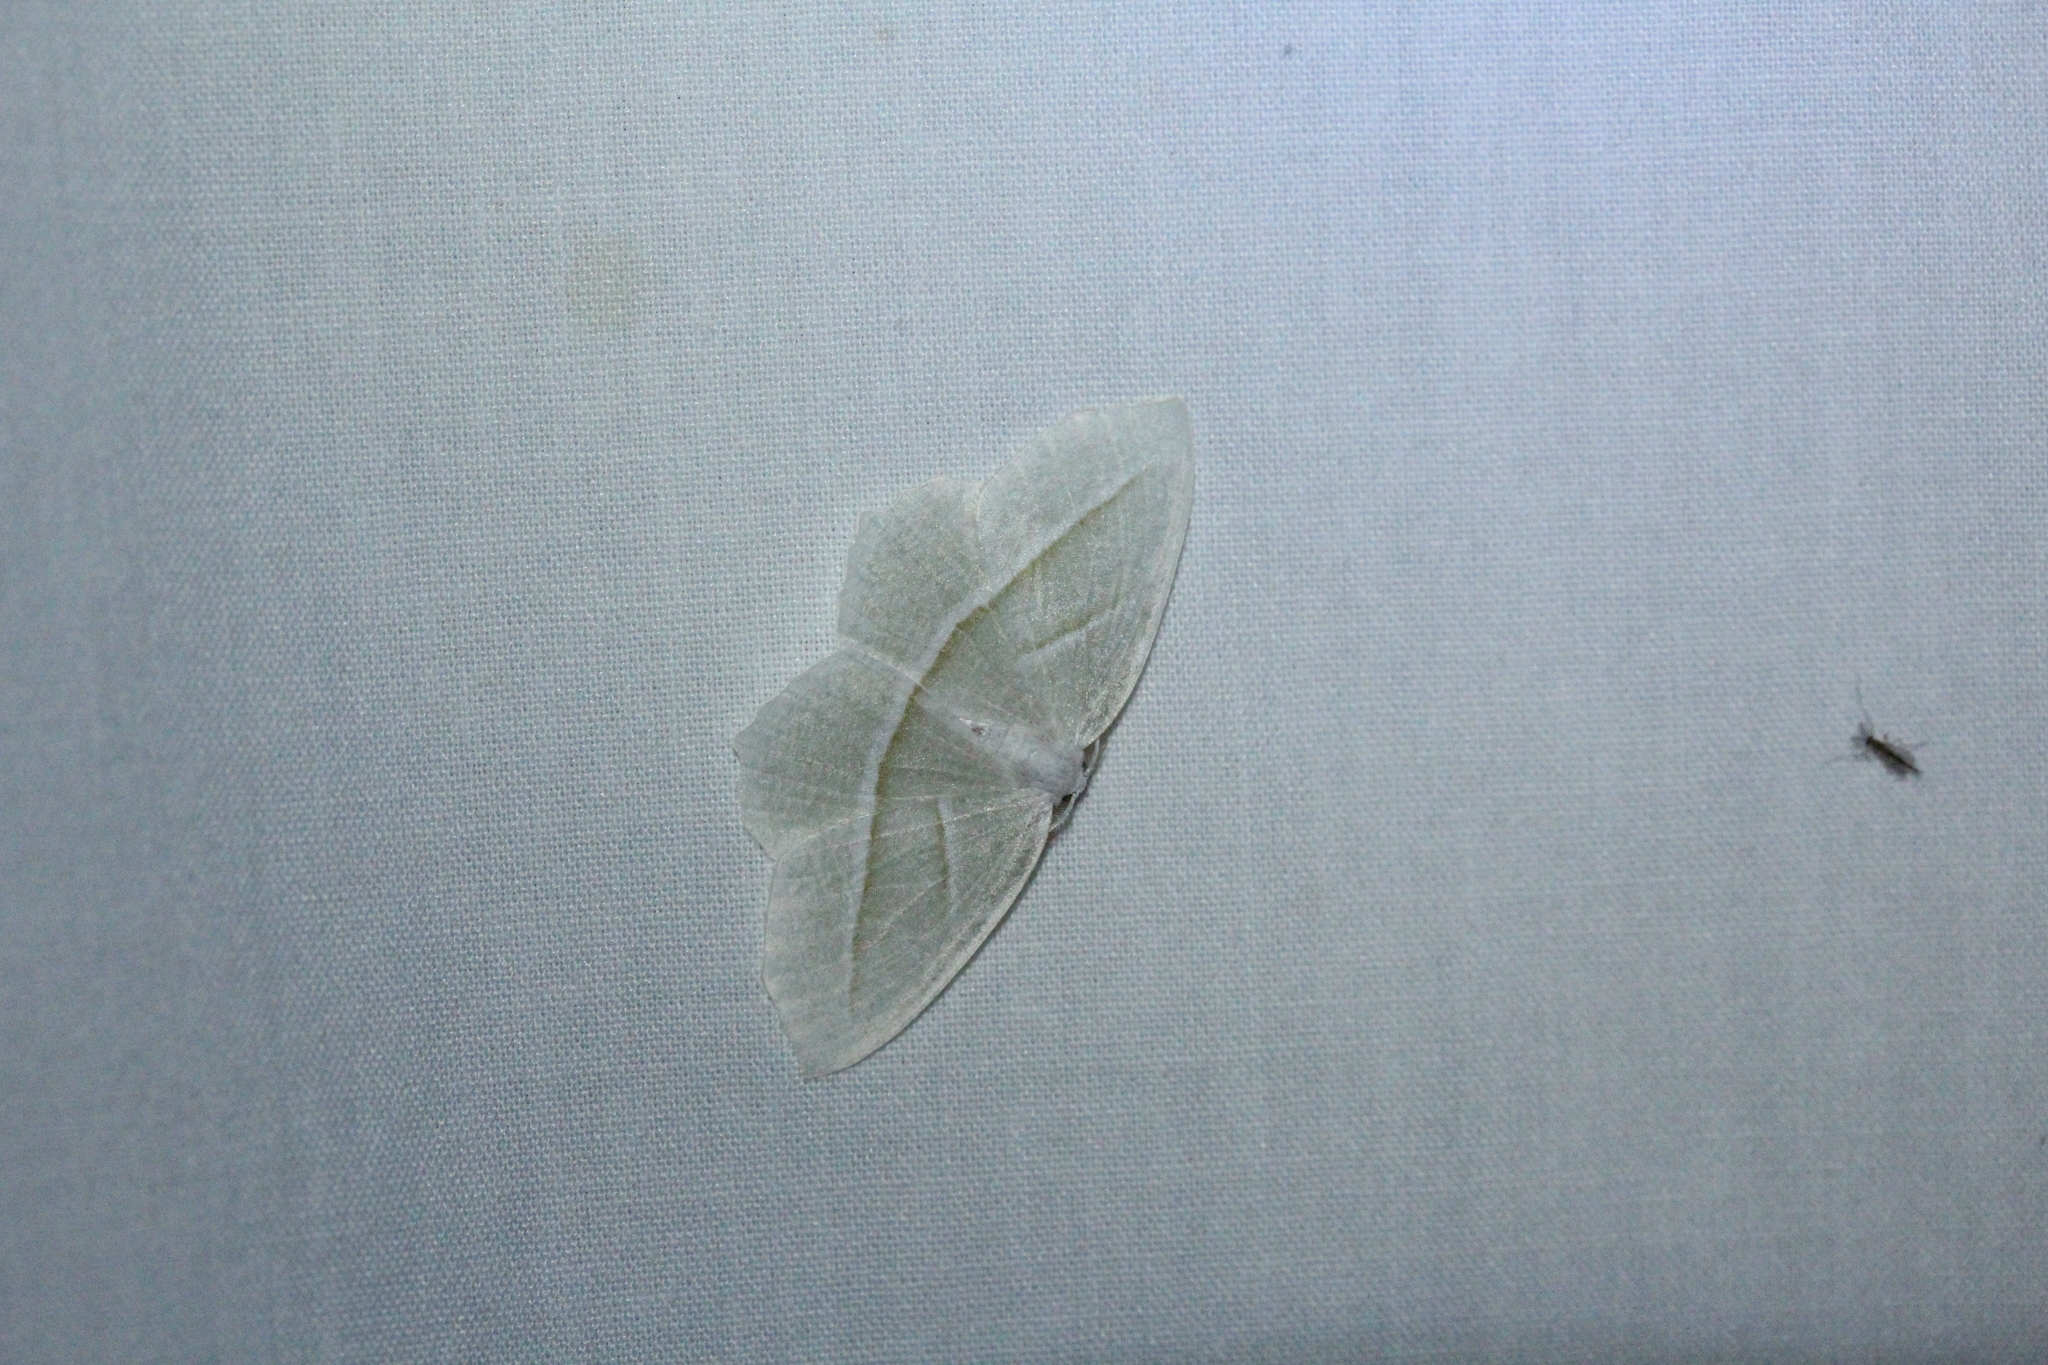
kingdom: Animalia
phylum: Arthropoda
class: Insecta
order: Lepidoptera
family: Geometridae
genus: Campaea
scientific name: Campaea perlata
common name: Fringed looper
